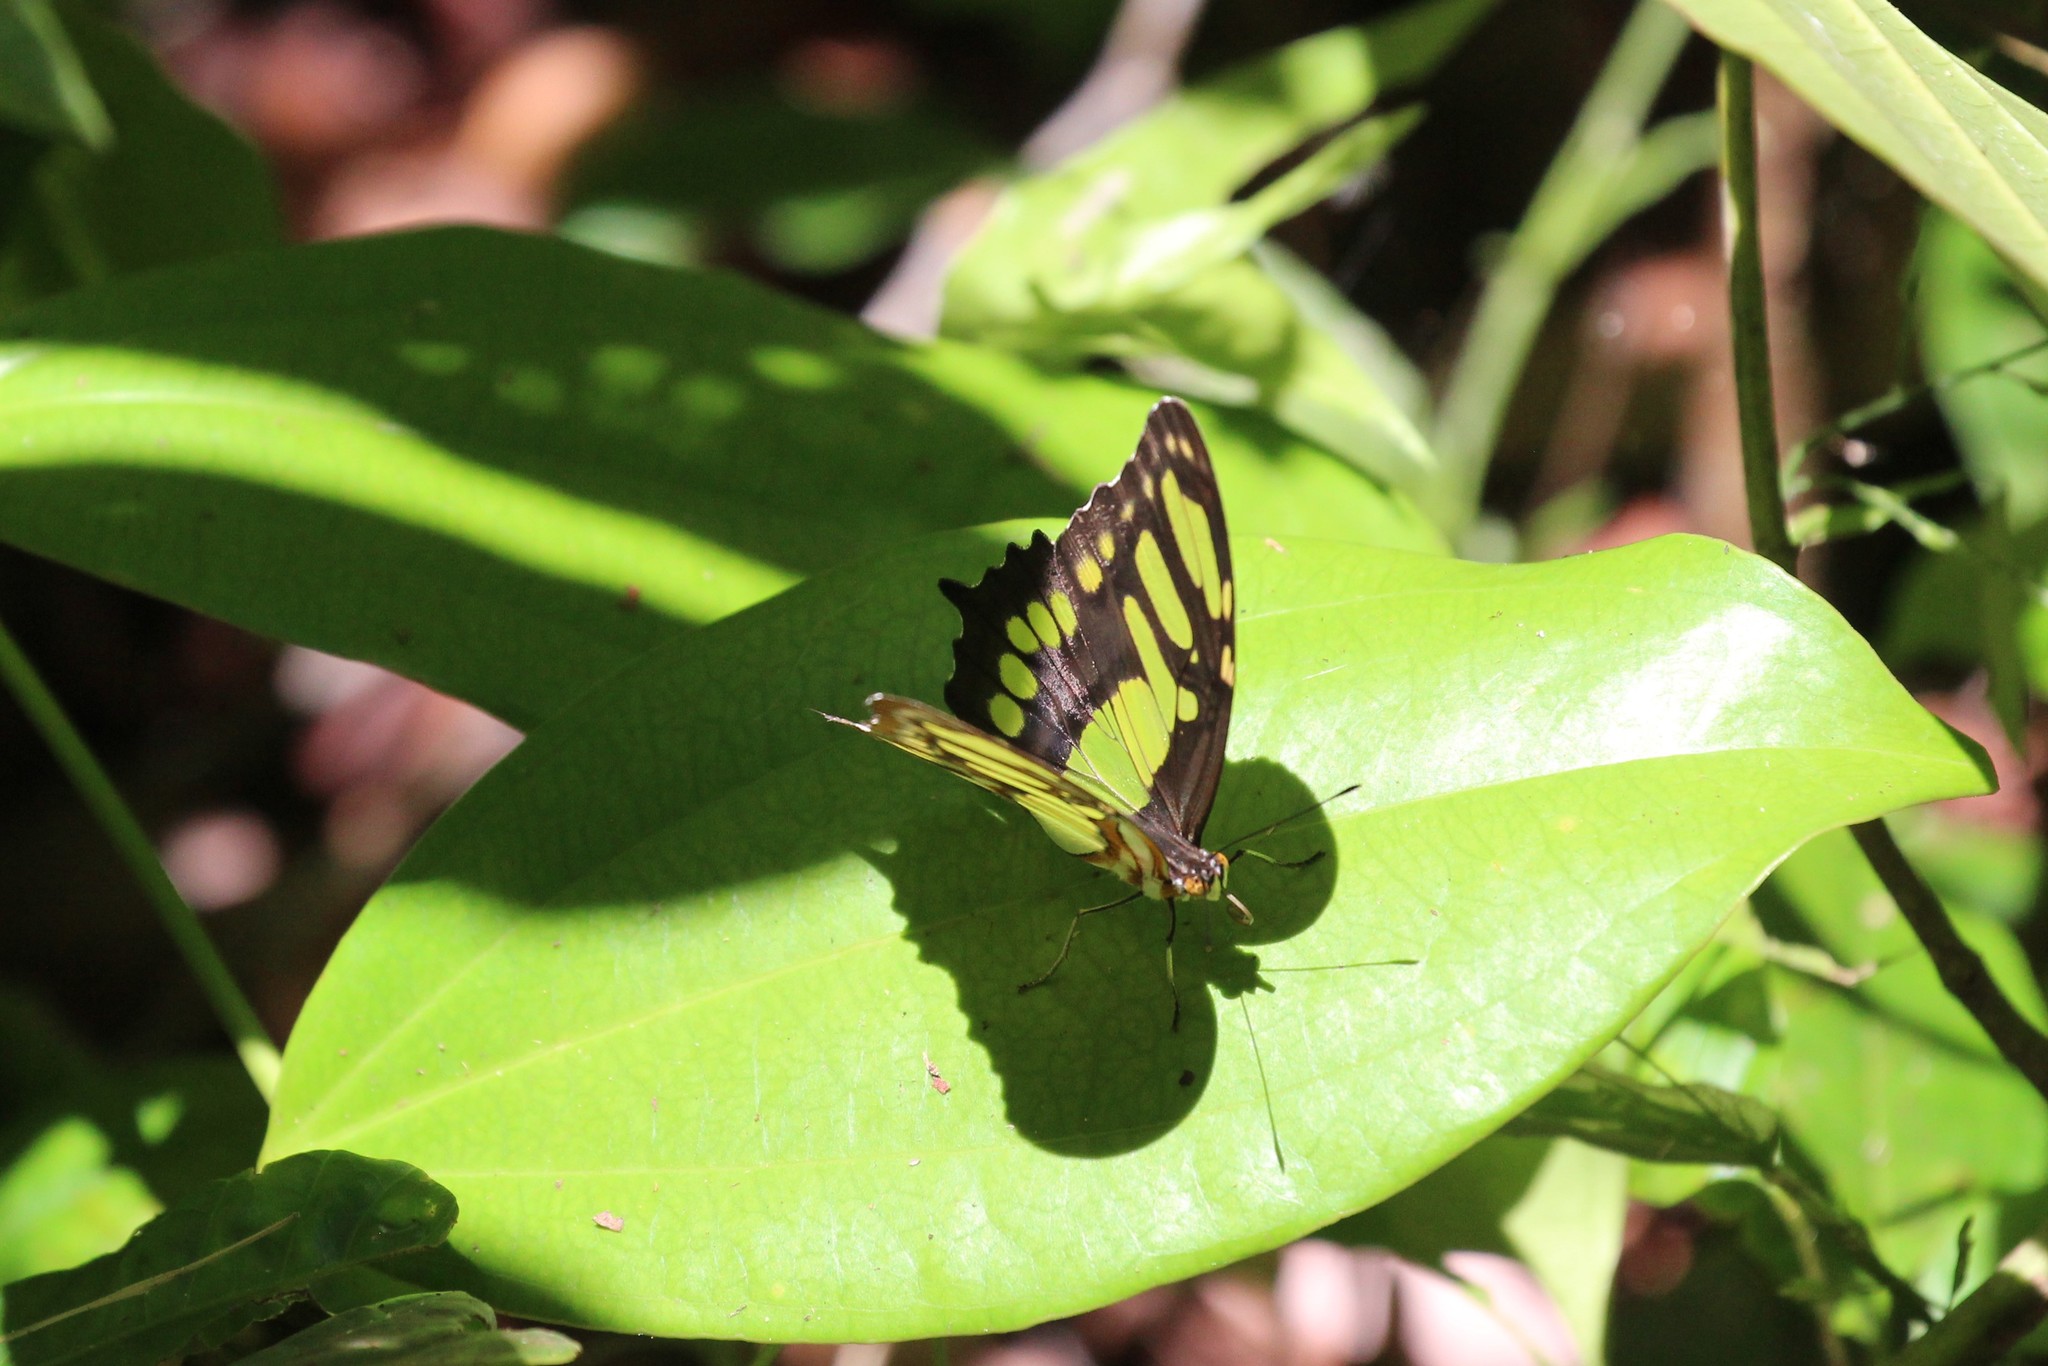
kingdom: Animalia
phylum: Arthropoda
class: Insecta
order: Lepidoptera
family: Nymphalidae
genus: Siproeta
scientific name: Siproeta stelenes
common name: Malachite
